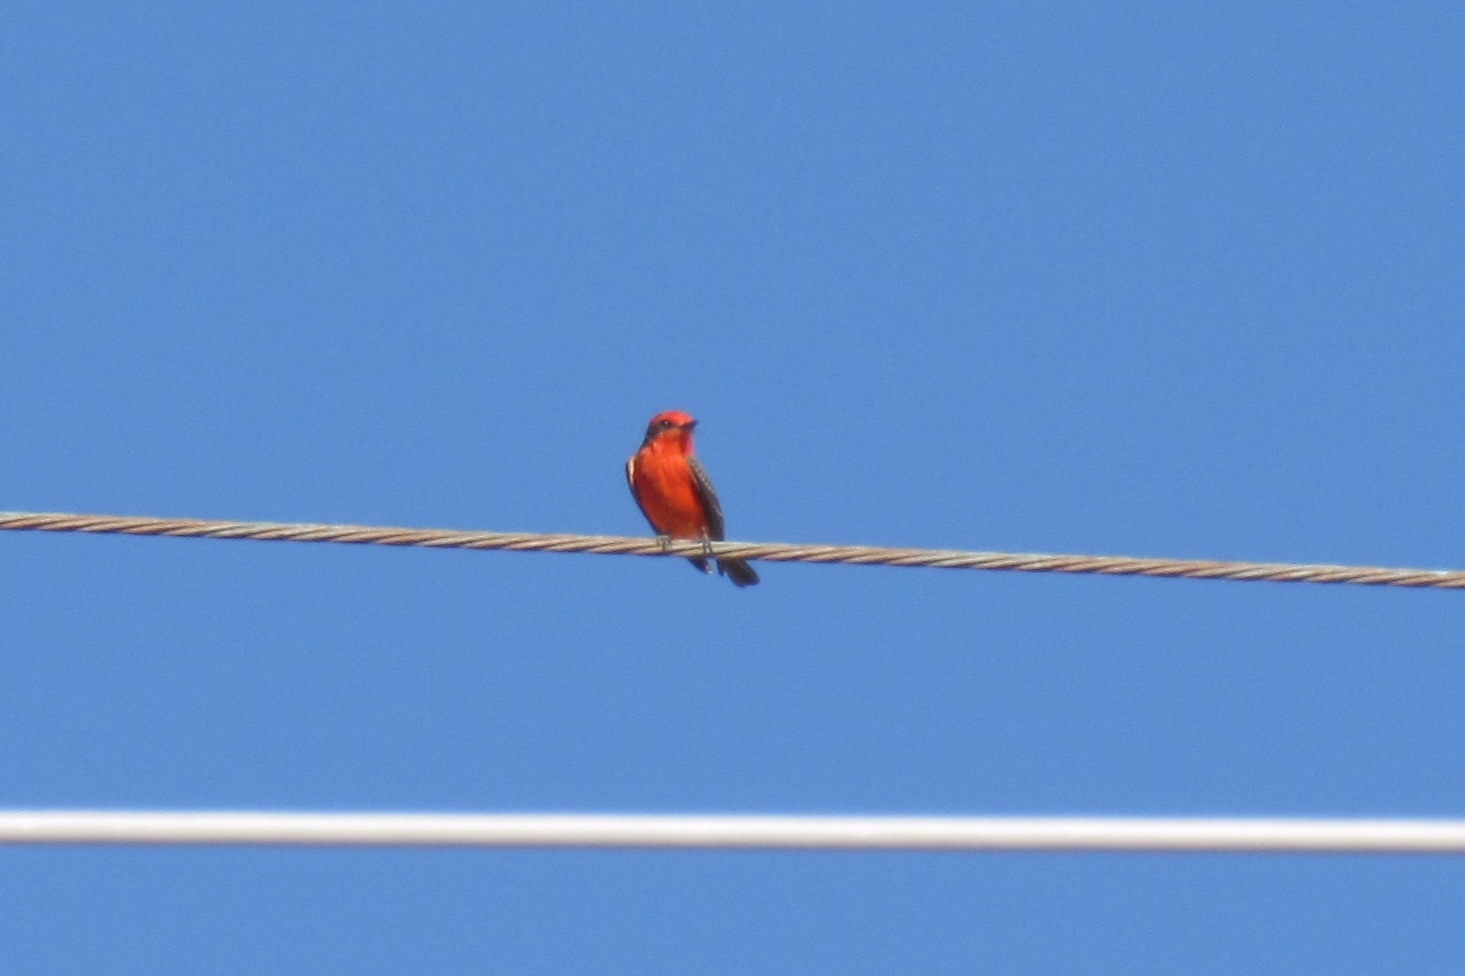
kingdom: Animalia
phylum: Chordata
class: Aves
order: Passeriformes
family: Tyrannidae
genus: Pyrocephalus
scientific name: Pyrocephalus rubinus
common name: Vermilion flycatcher
